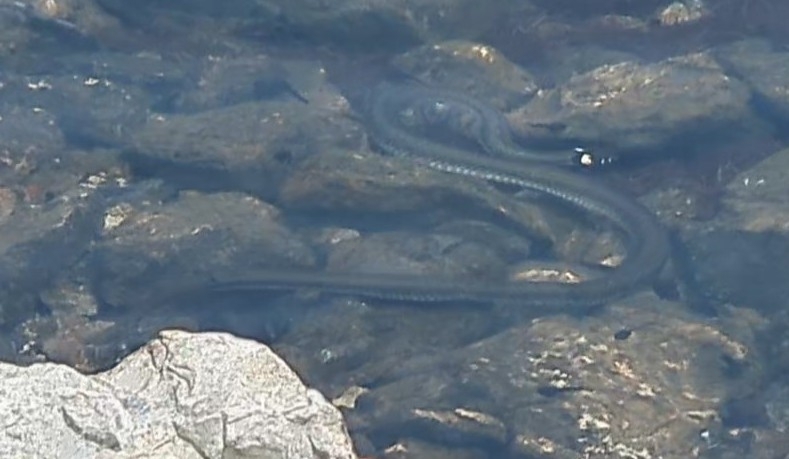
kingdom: Animalia
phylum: Chordata
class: Squamata
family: Colubridae
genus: Natrix
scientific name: Natrix natrix
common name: Grass snake
